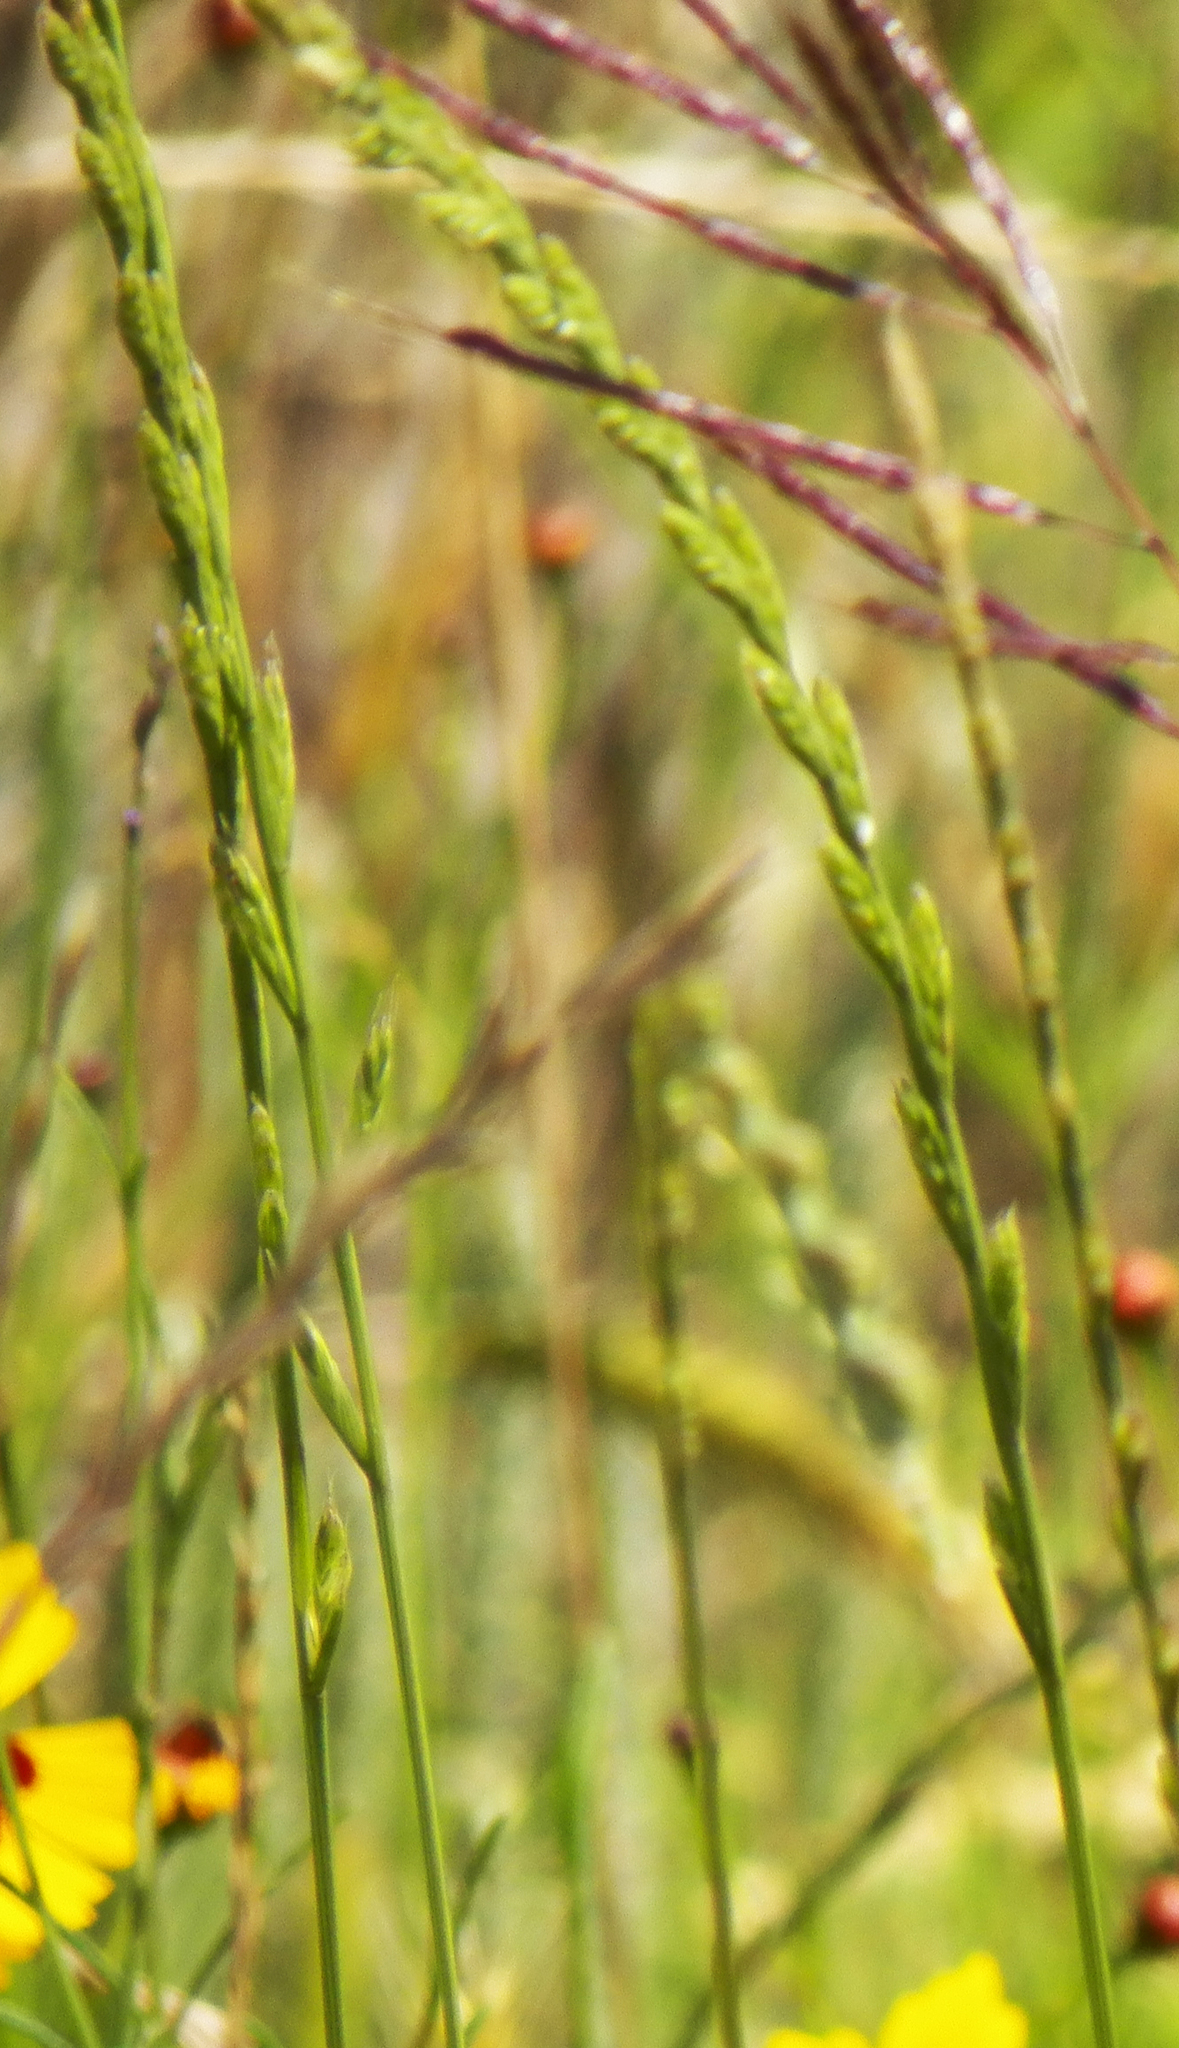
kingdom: Plantae
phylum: Tracheophyta
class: Liliopsida
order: Poales
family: Poaceae
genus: Lolium
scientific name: Lolium perenne
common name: Perennial ryegrass
